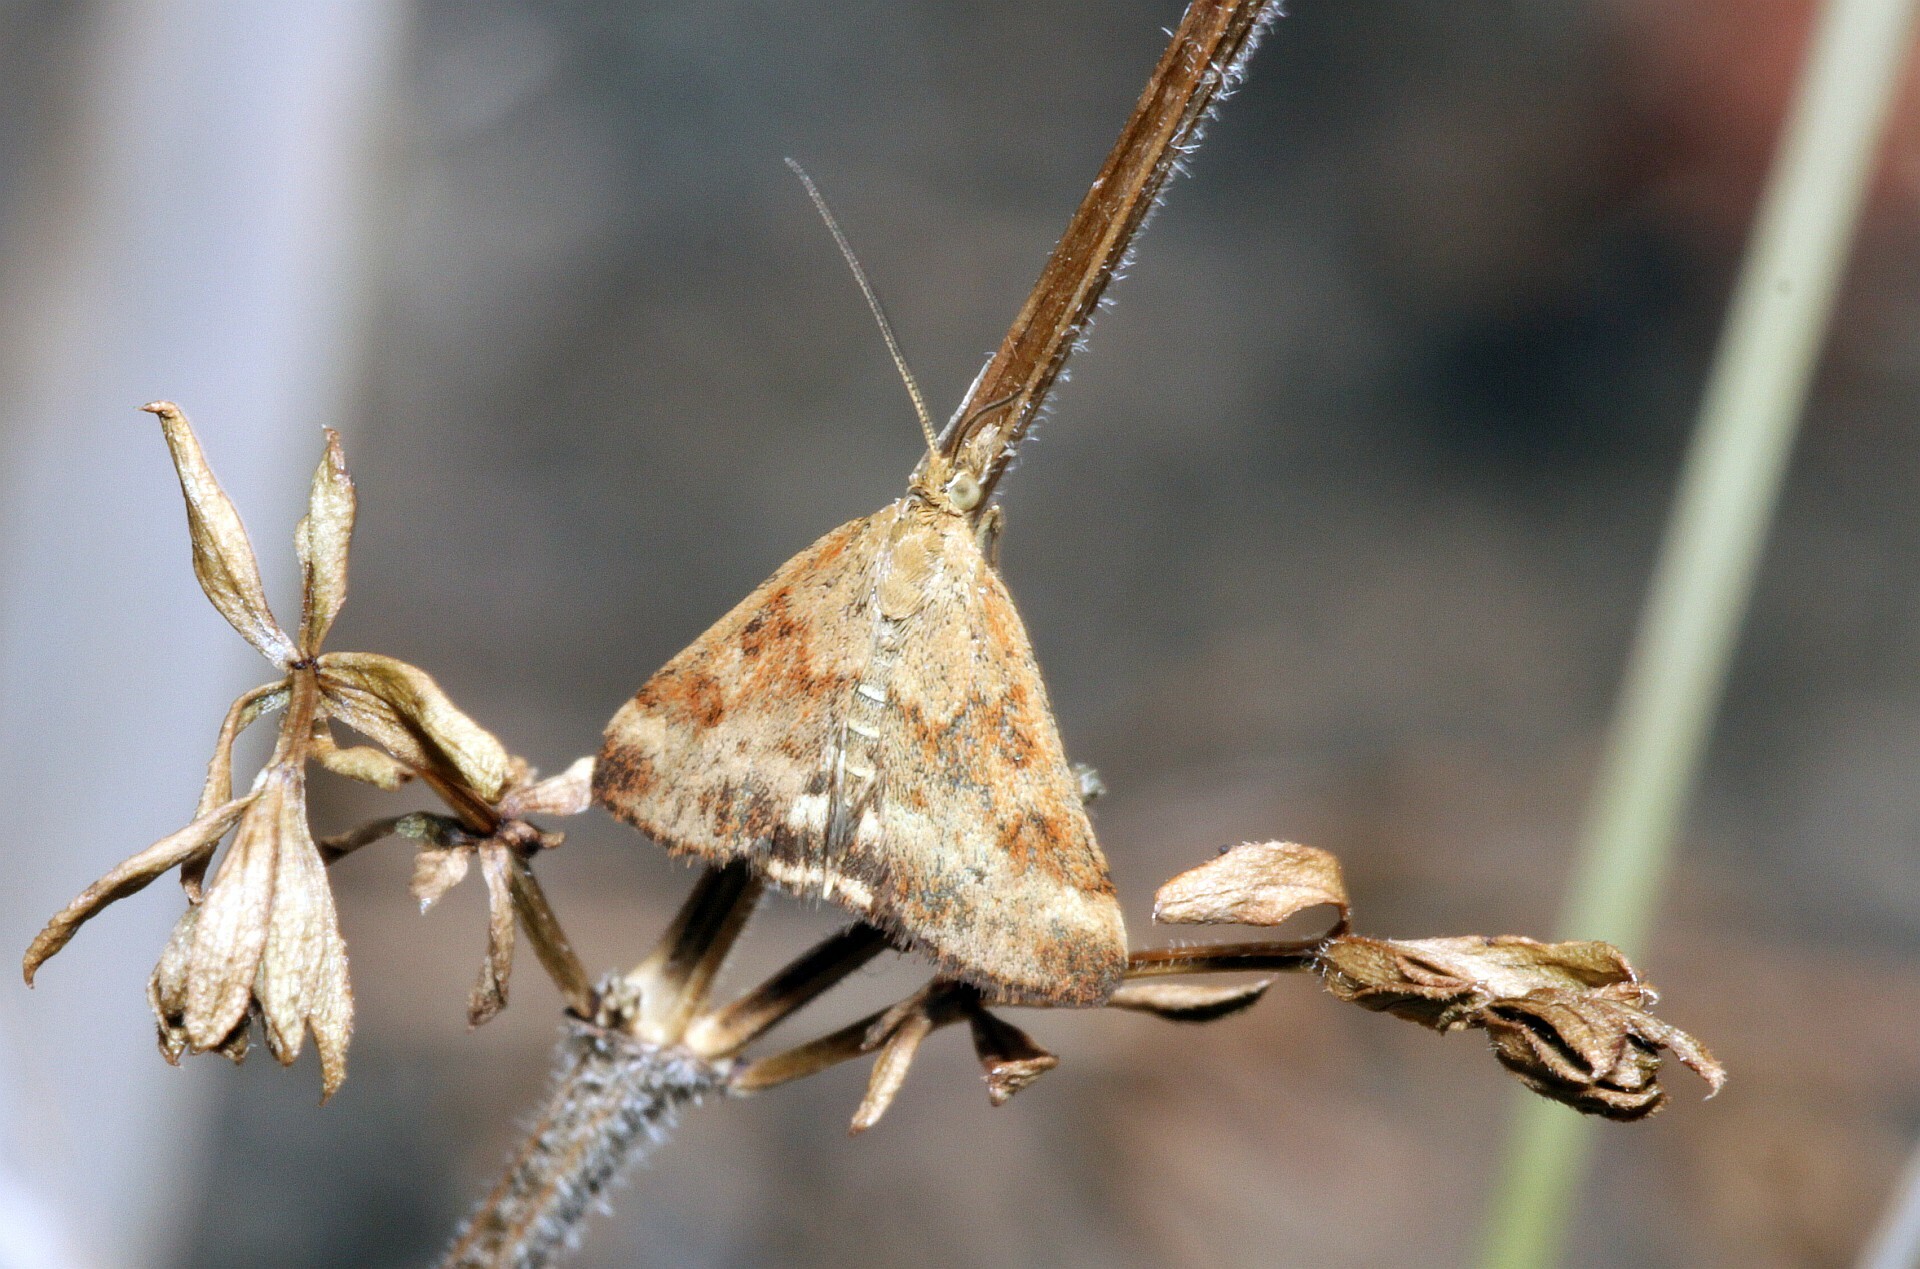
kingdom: Animalia
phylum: Arthropoda
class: Insecta
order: Lepidoptera
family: Crambidae
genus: Pyrausta
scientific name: Pyrausta despicata
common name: Straw-barred pearl
